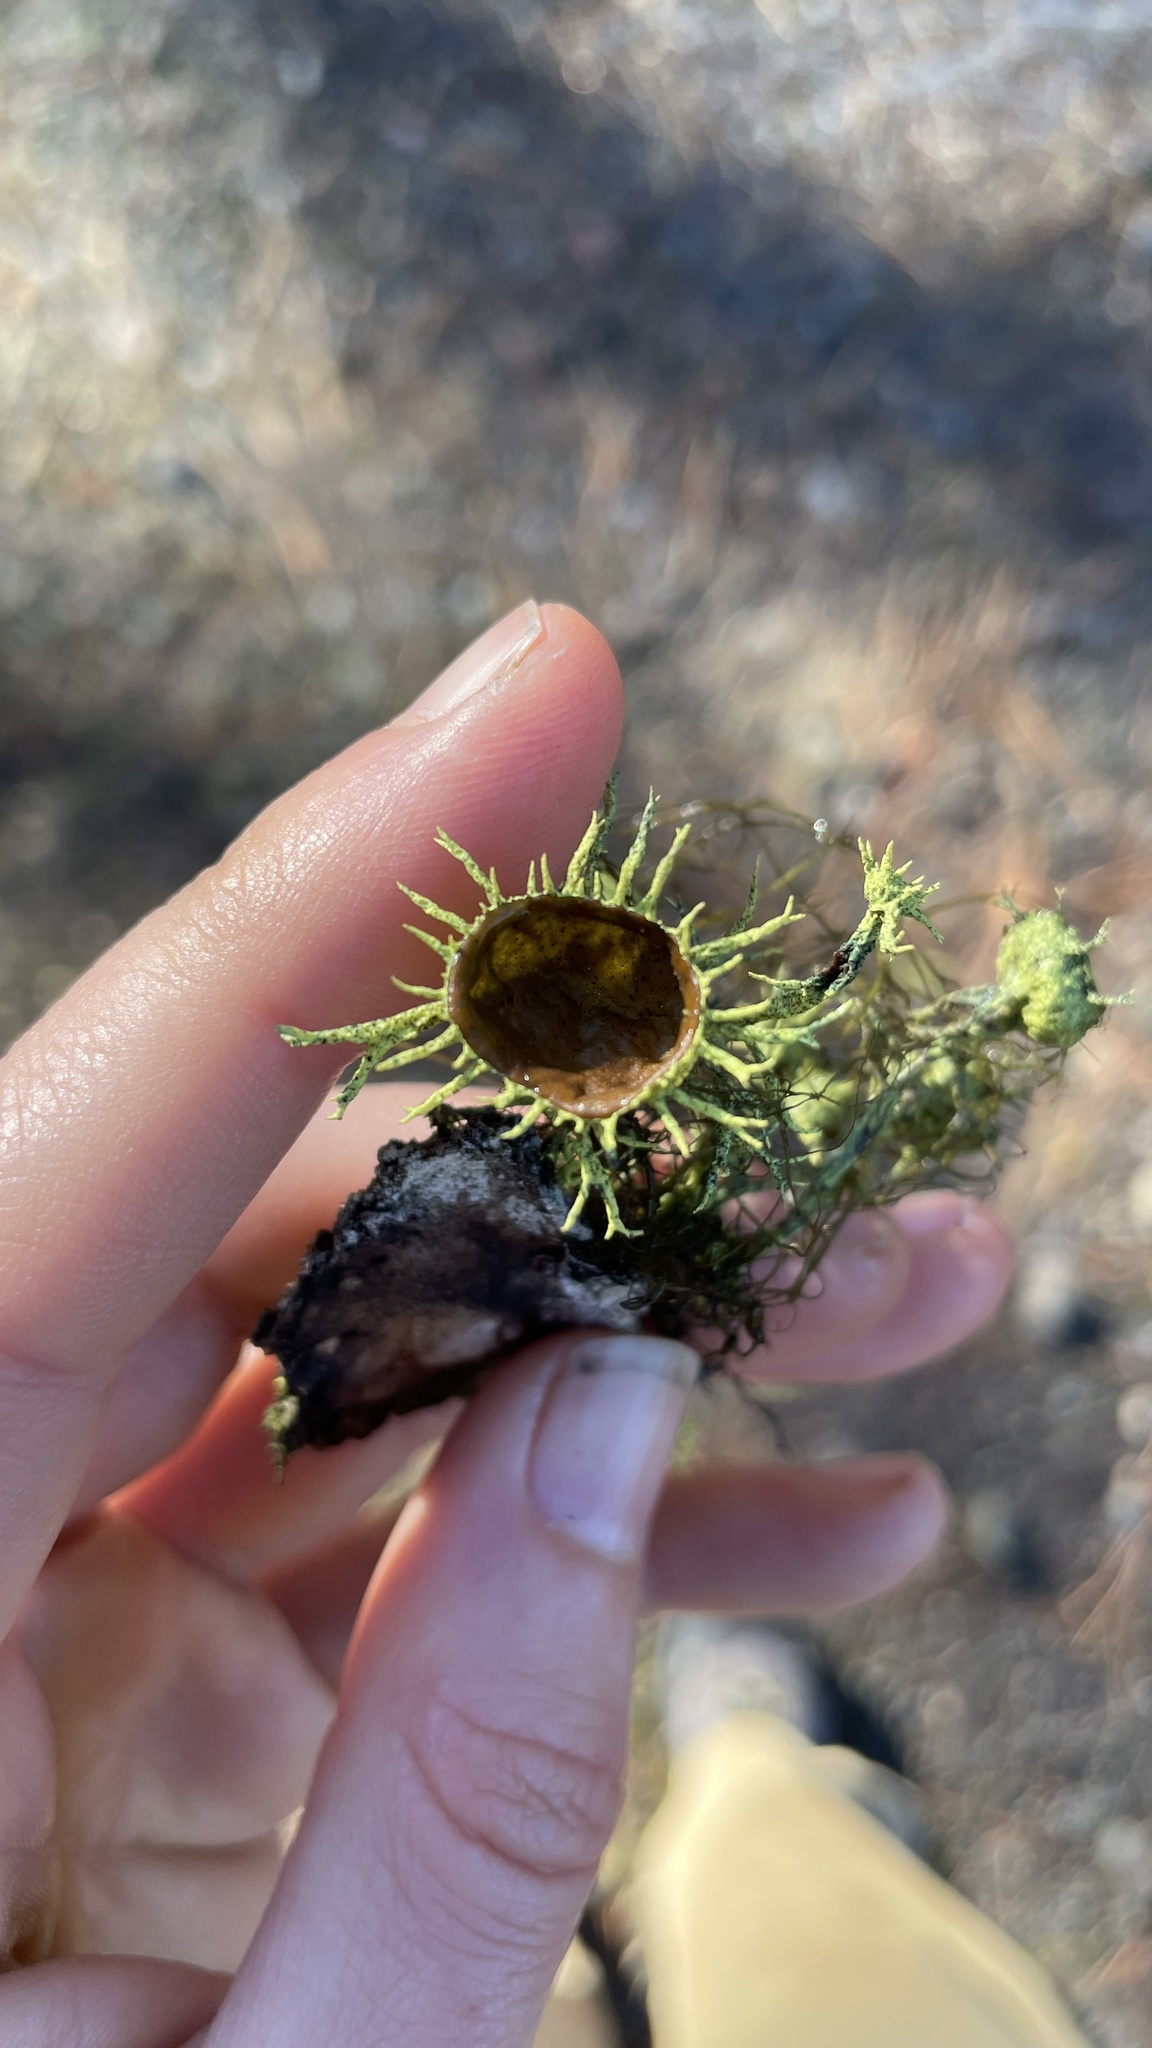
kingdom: Fungi
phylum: Ascomycota
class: Lecanoromycetes
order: Lecanorales
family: Parmeliaceae
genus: Letharia
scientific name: Letharia columbiana
